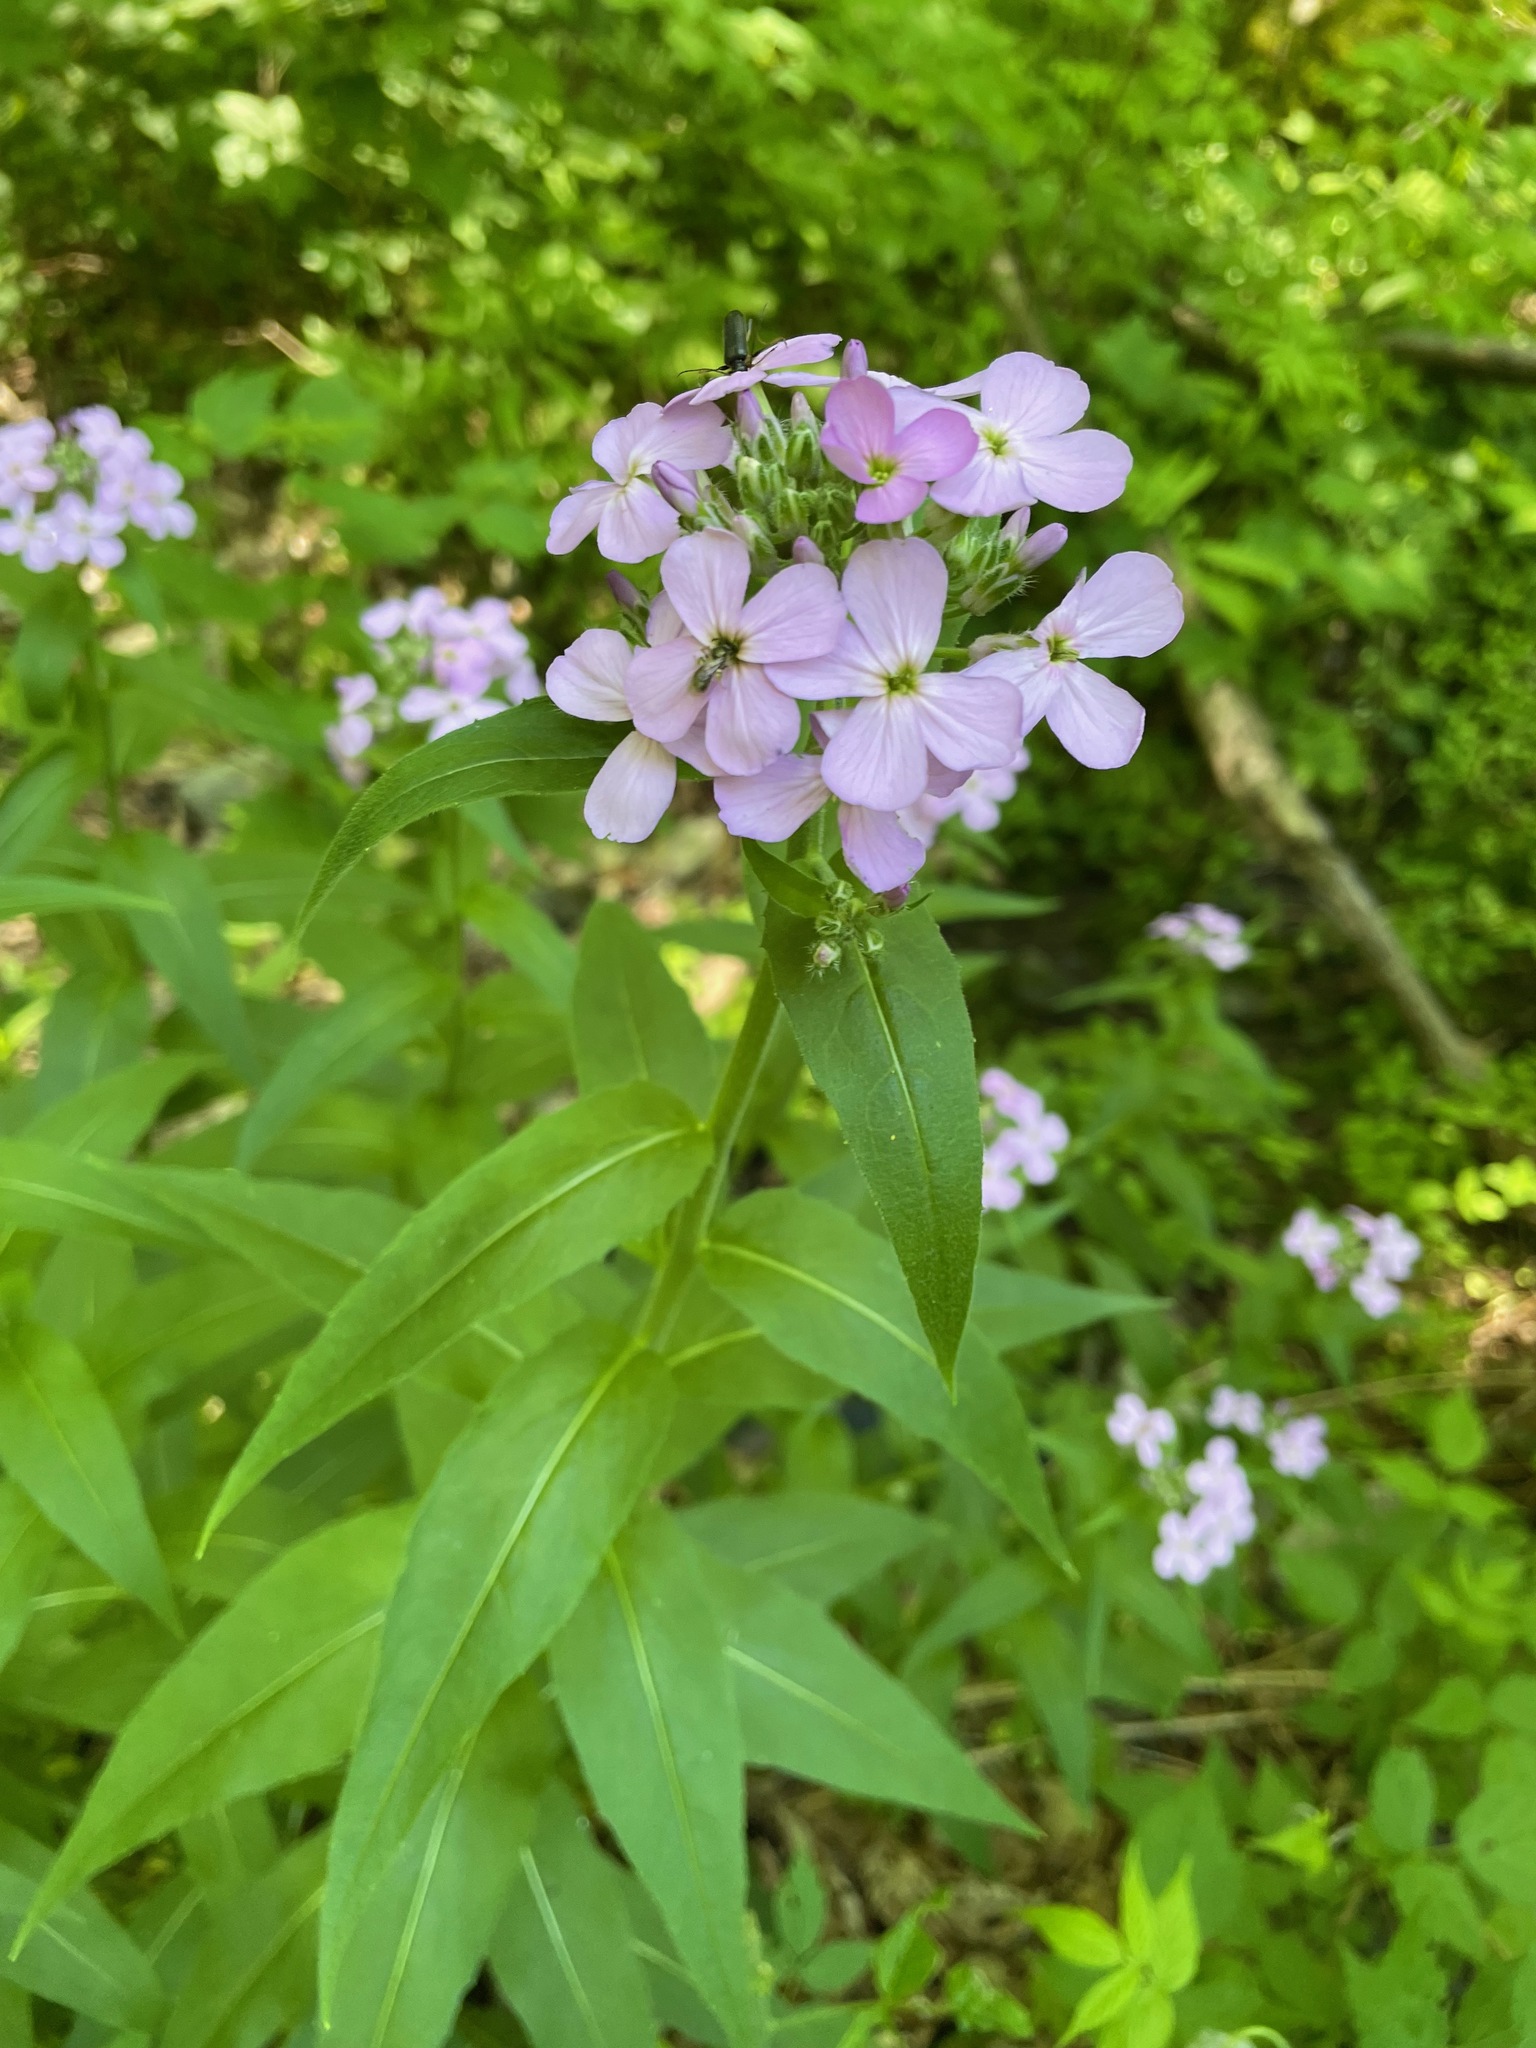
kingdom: Plantae
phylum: Tracheophyta
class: Magnoliopsida
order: Brassicales
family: Brassicaceae
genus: Hesperis
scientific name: Hesperis matronalis
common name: Dame's-violet
